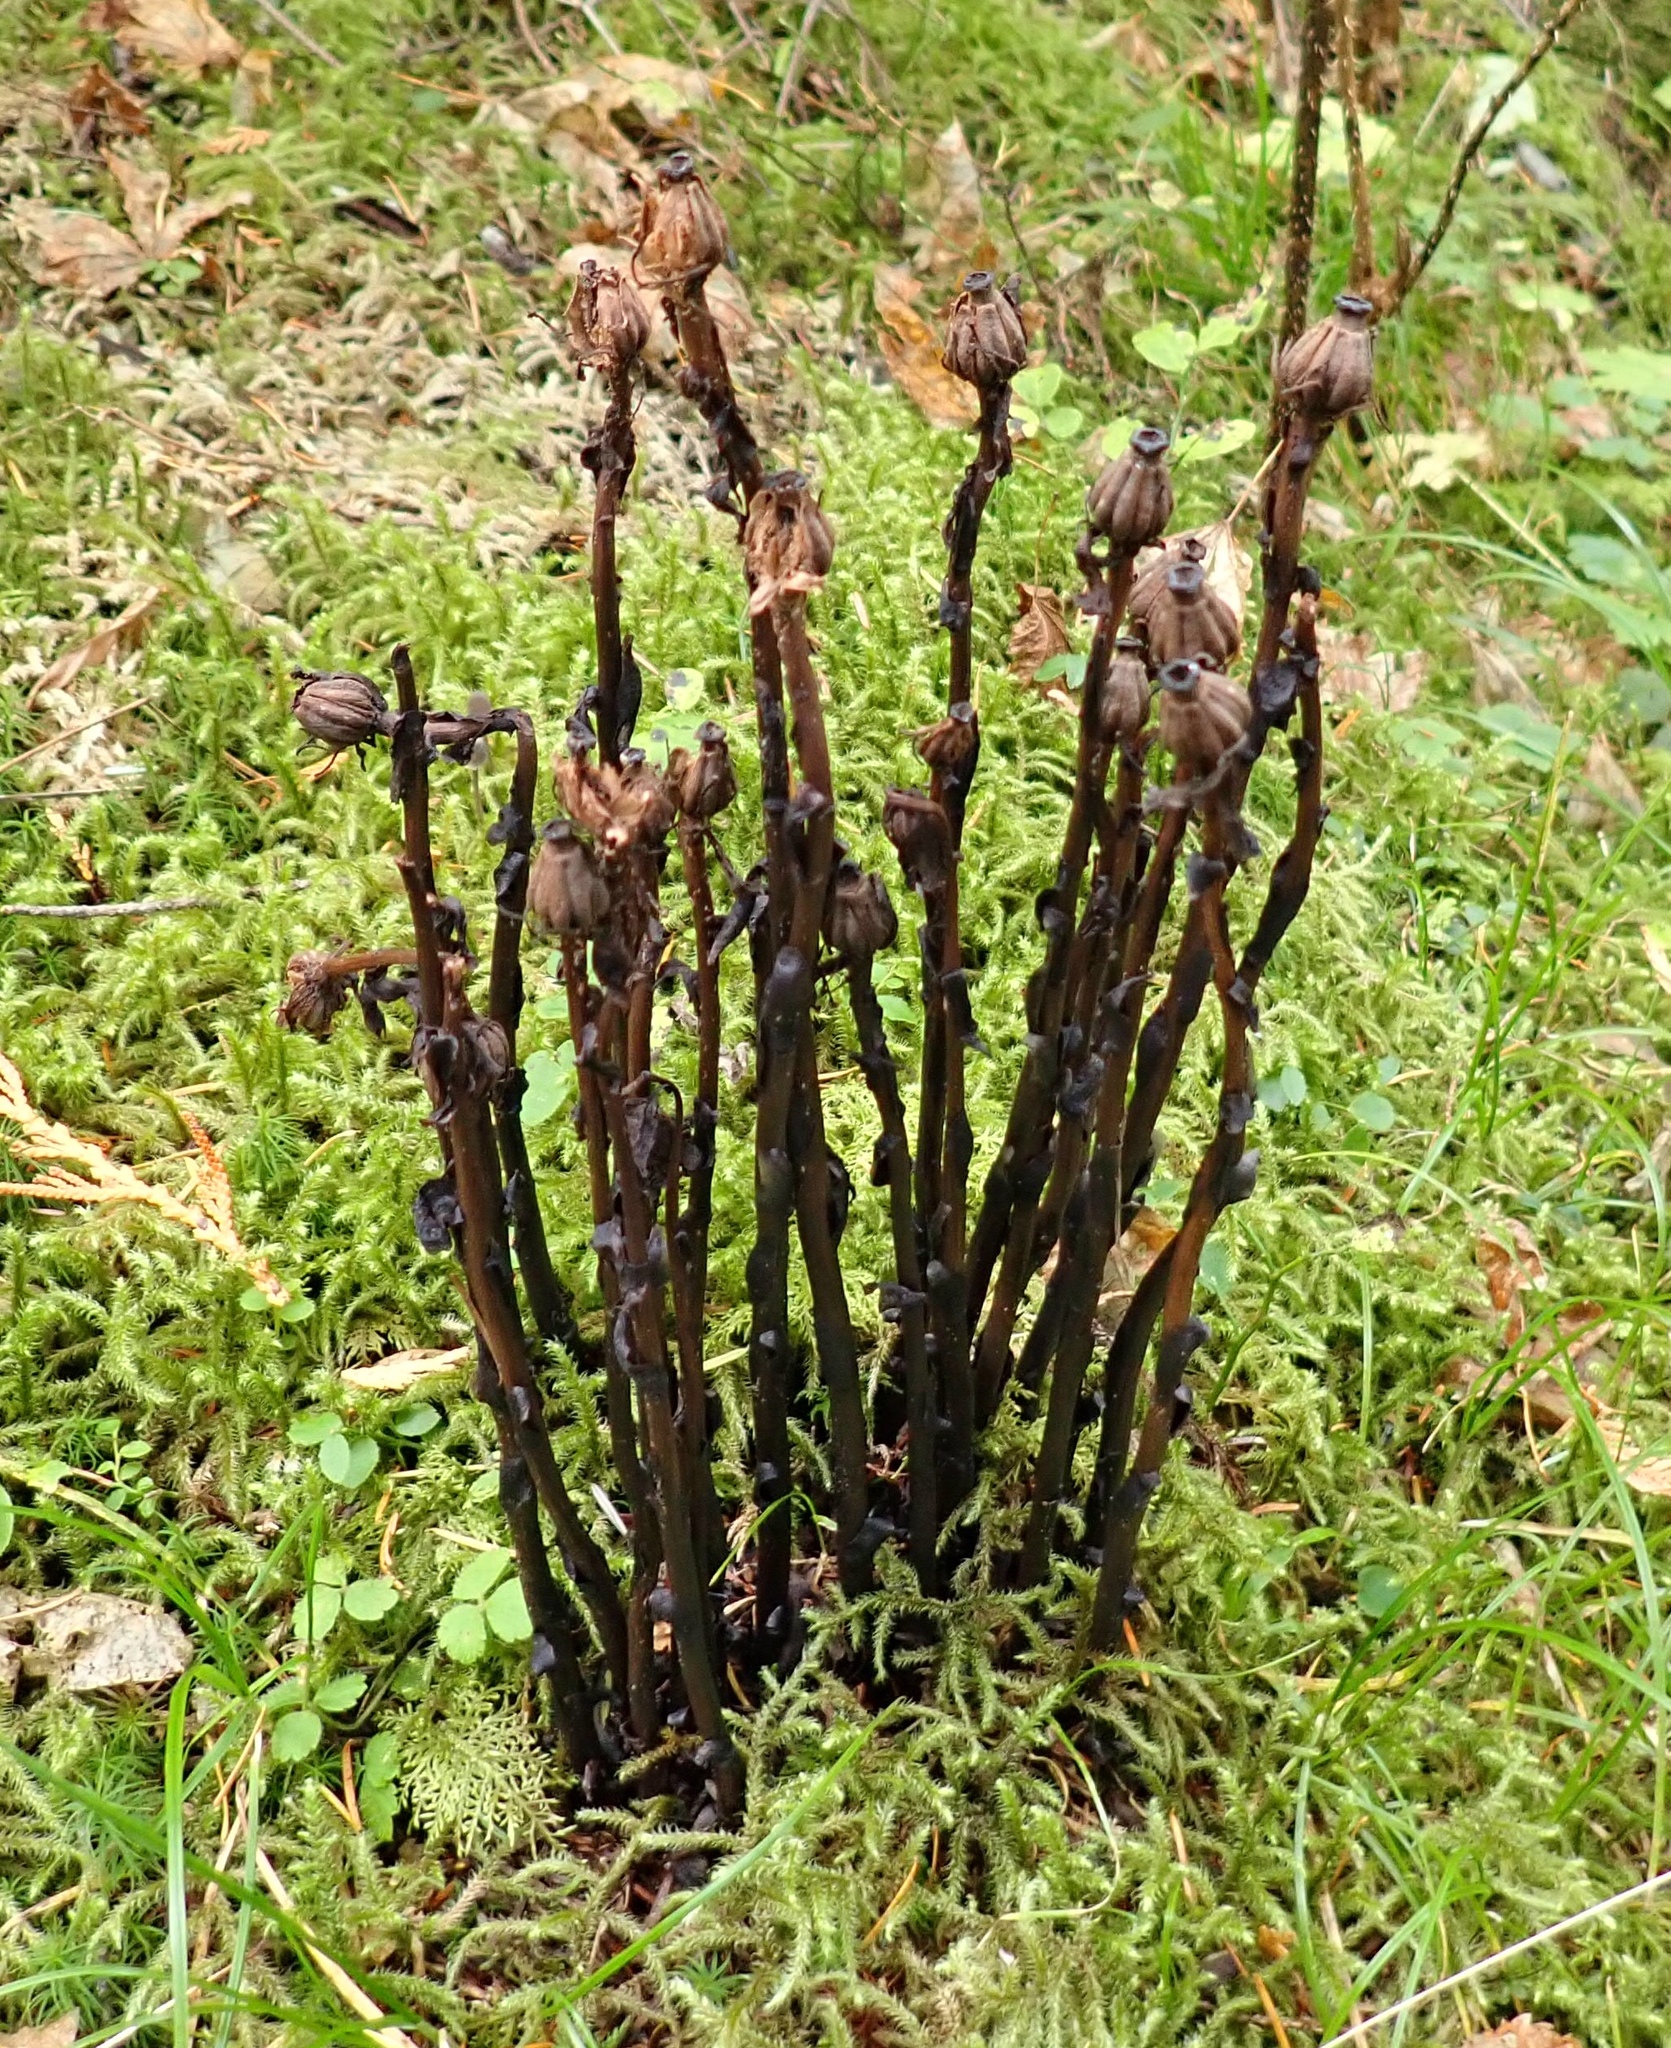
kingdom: Plantae
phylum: Tracheophyta
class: Magnoliopsida
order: Ericales
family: Ericaceae
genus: Monotropa
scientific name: Monotropa uniflora
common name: Convulsion root
